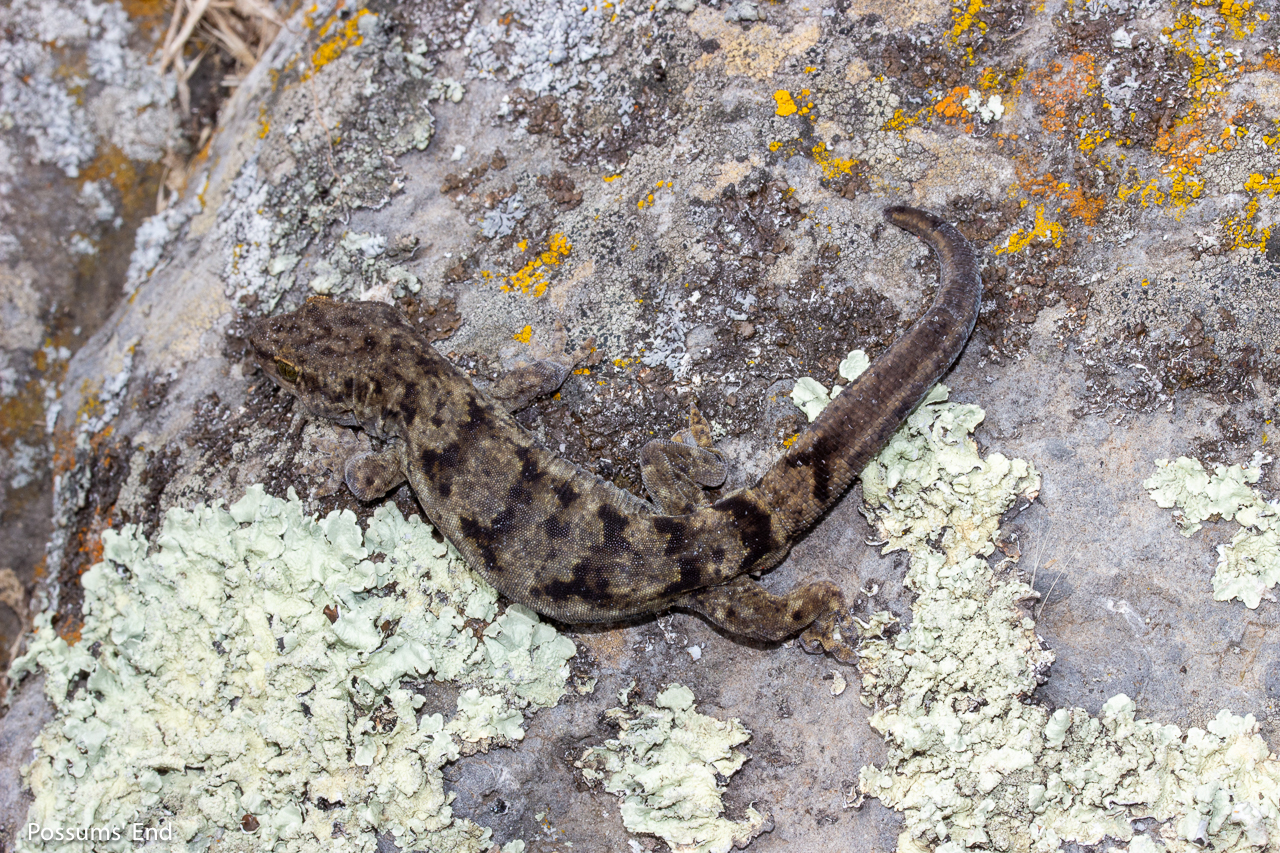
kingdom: Animalia
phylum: Chordata
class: Squamata
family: Diplodactylidae
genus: Woodworthia
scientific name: Woodworthia brunnea
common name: Canterbury gecko
